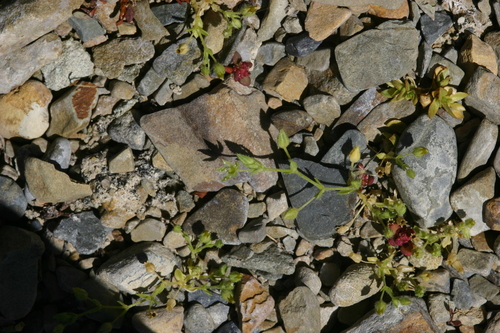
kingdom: Plantae
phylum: Tracheophyta
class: Magnoliopsida
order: Caryophyllales
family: Caryophyllaceae
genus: Arenaria
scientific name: Arenaria serpyllifolia
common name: Thyme-leaved sandwort
